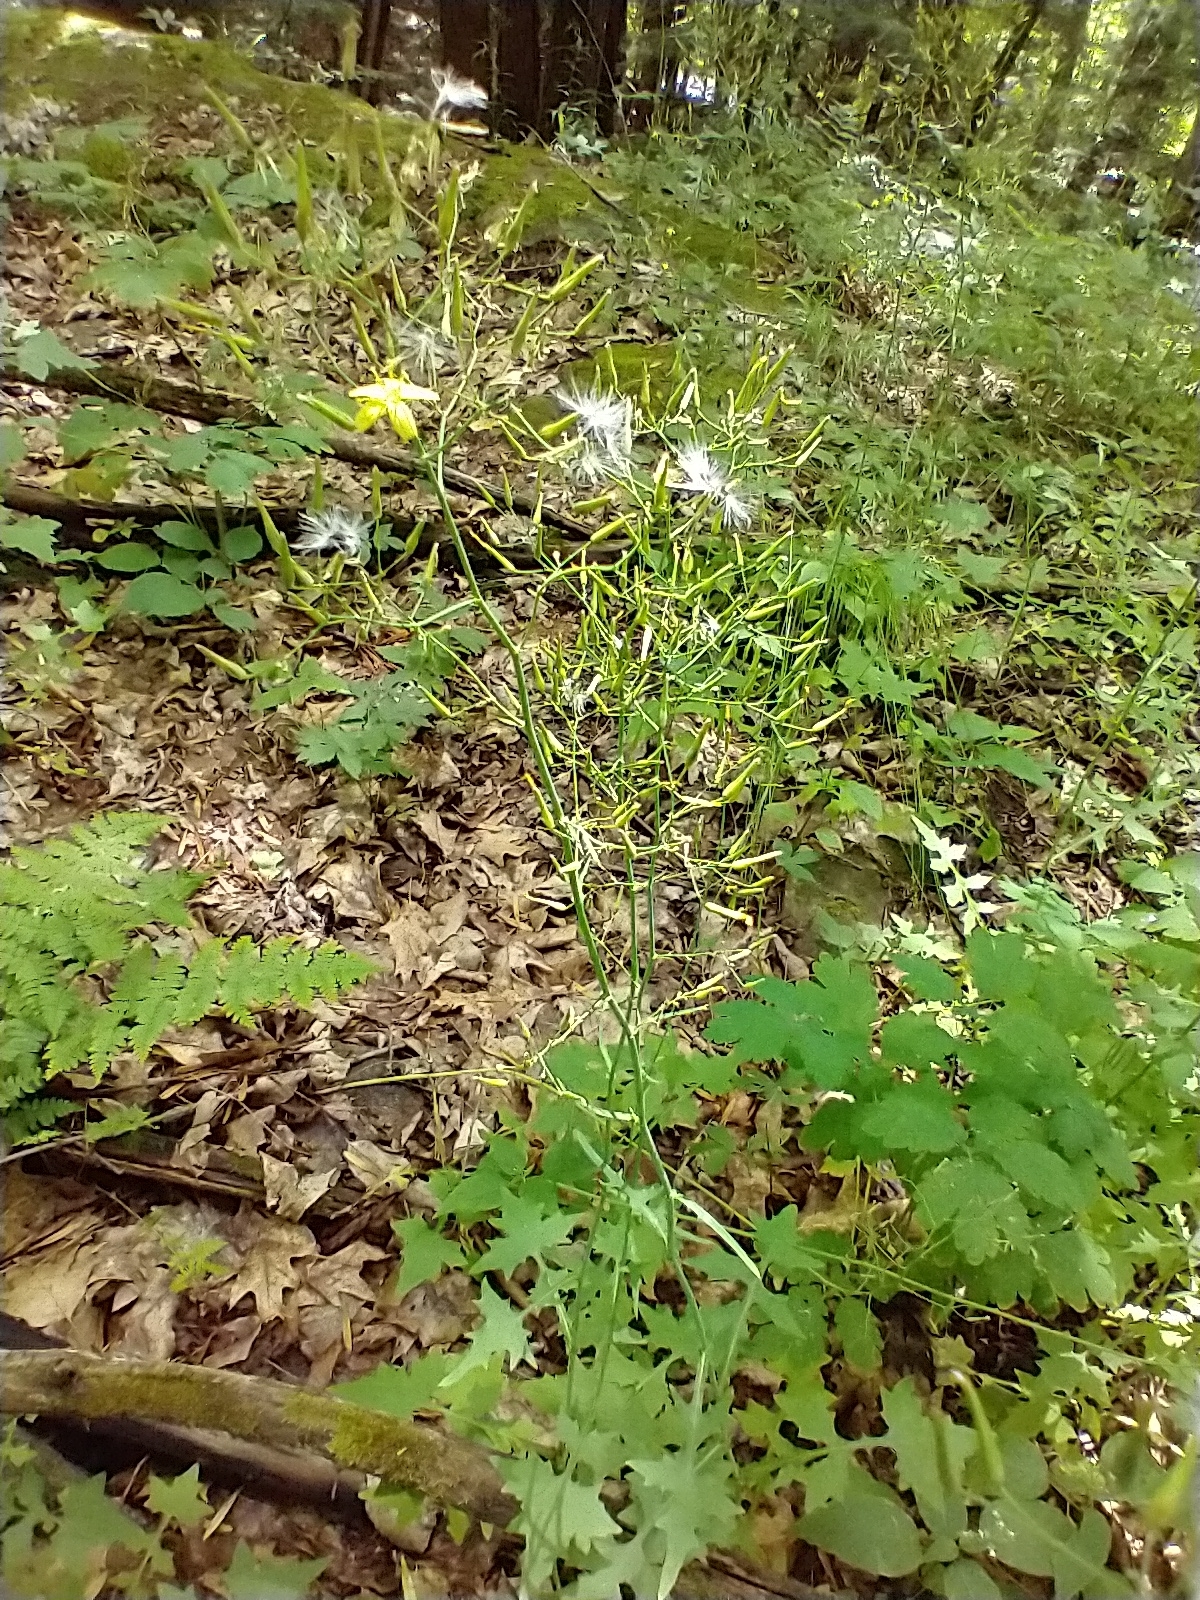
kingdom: Plantae
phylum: Tracheophyta
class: Magnoliopsida
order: Asterales
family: Asteraceae
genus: Mycelis
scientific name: Mycelis muralis
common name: Wall lettuce
